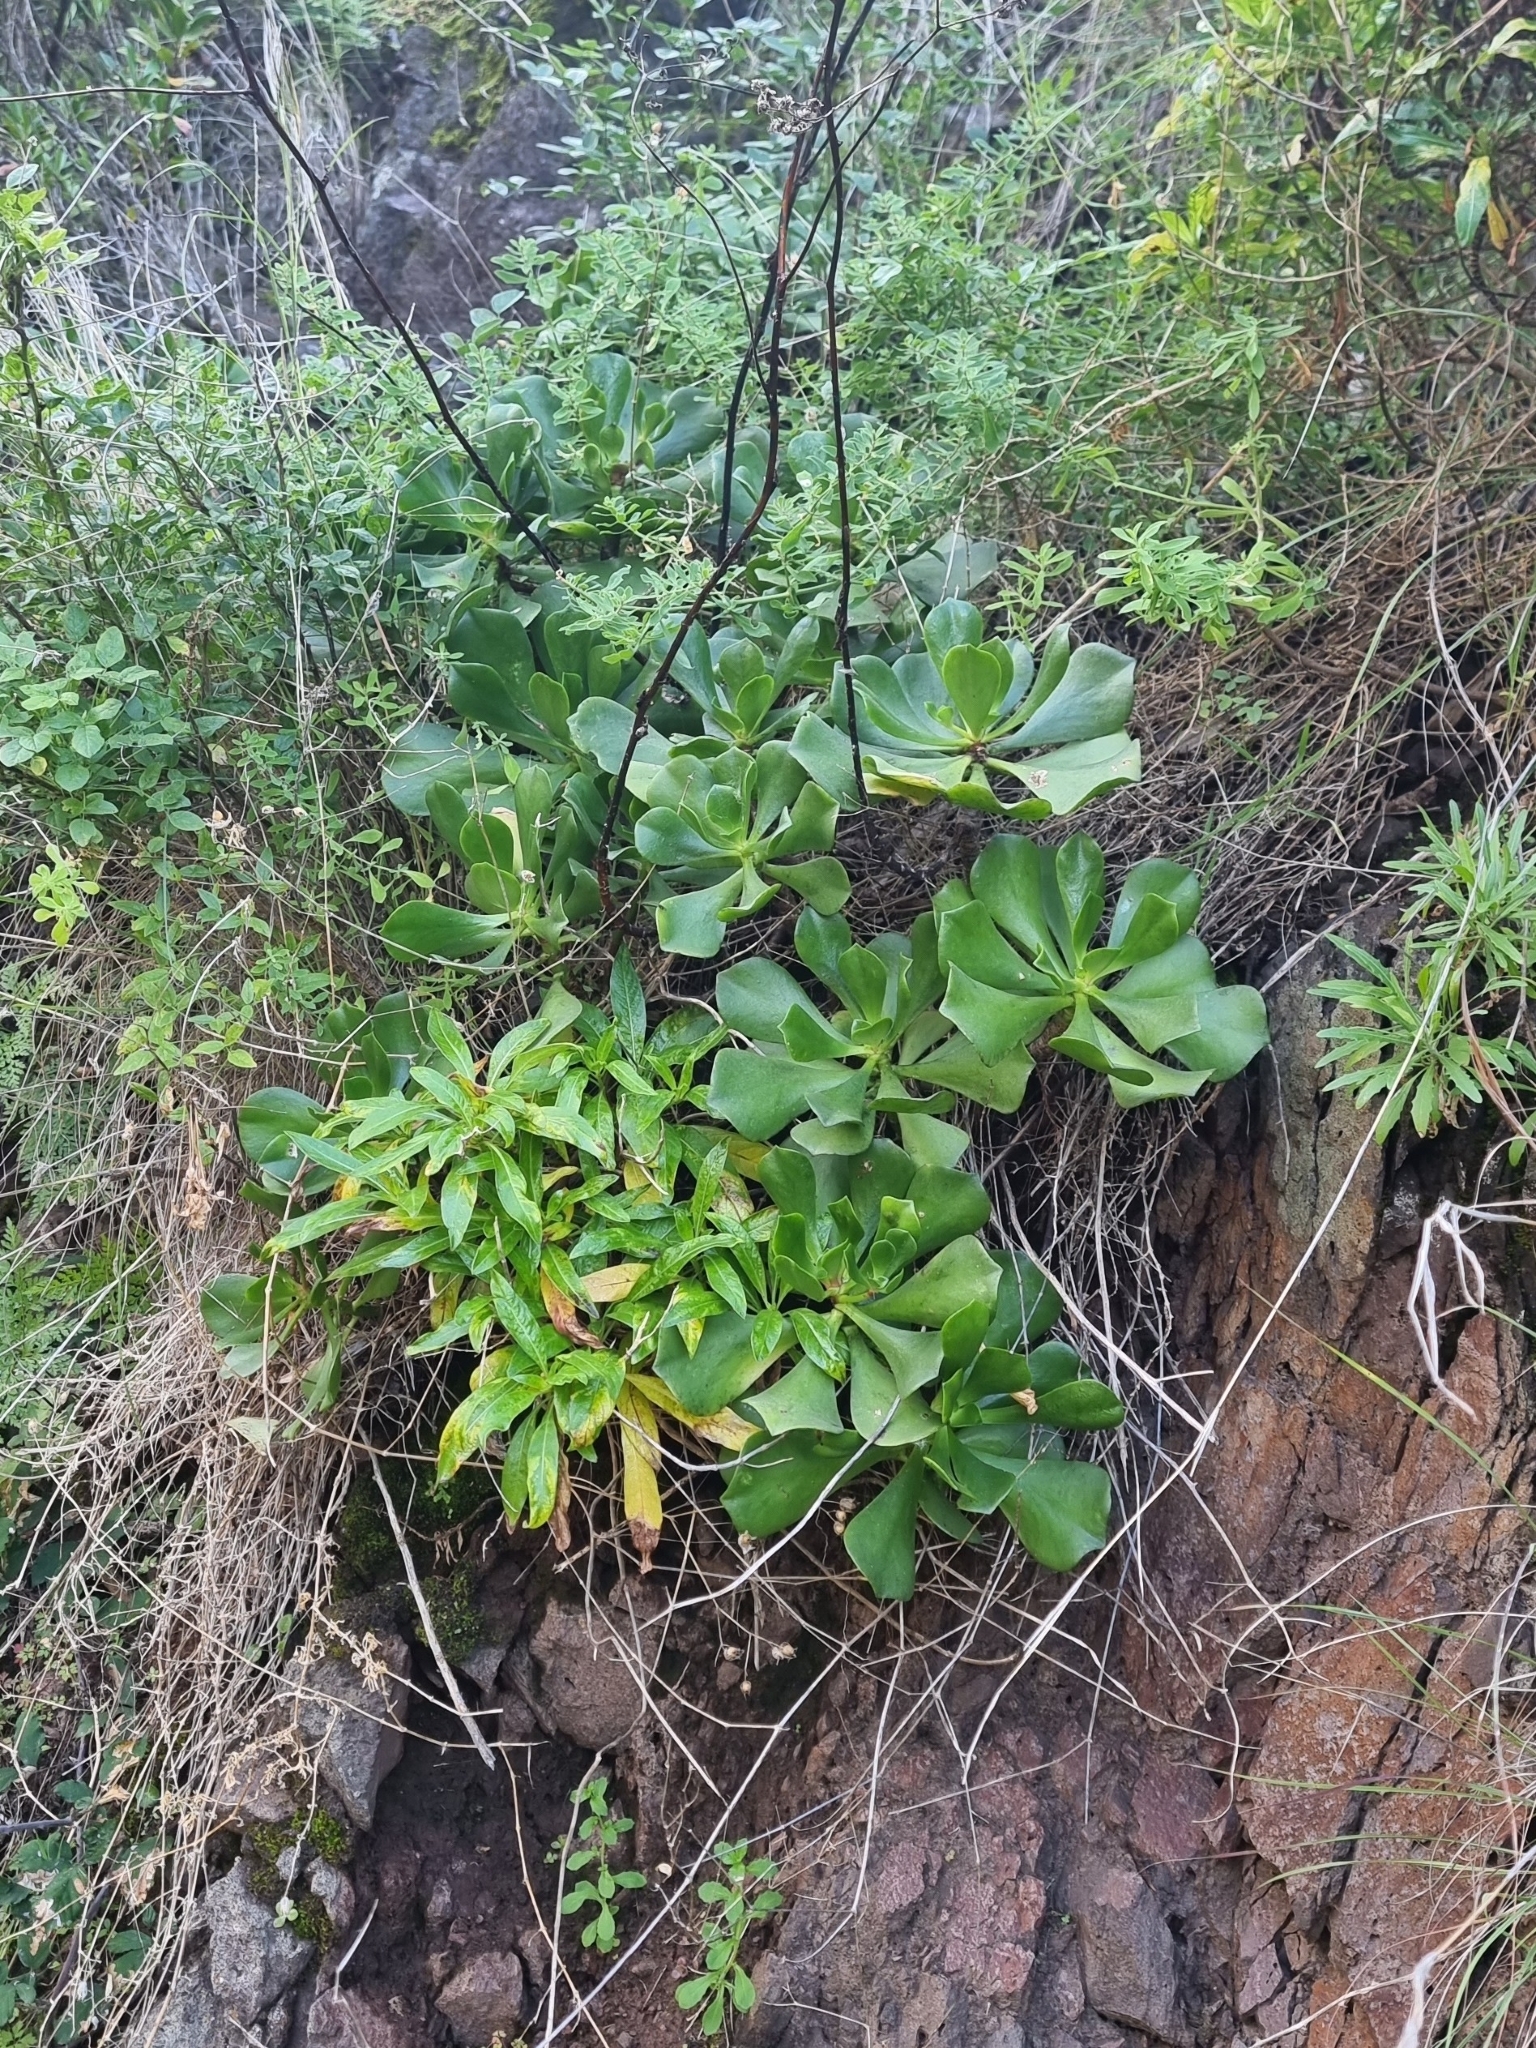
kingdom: Plantae
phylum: Tracheophyta
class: Magnoliopsida
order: Saxifragales
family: Crassulaceae
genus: Aeonium
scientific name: Aeonium glutinosum
